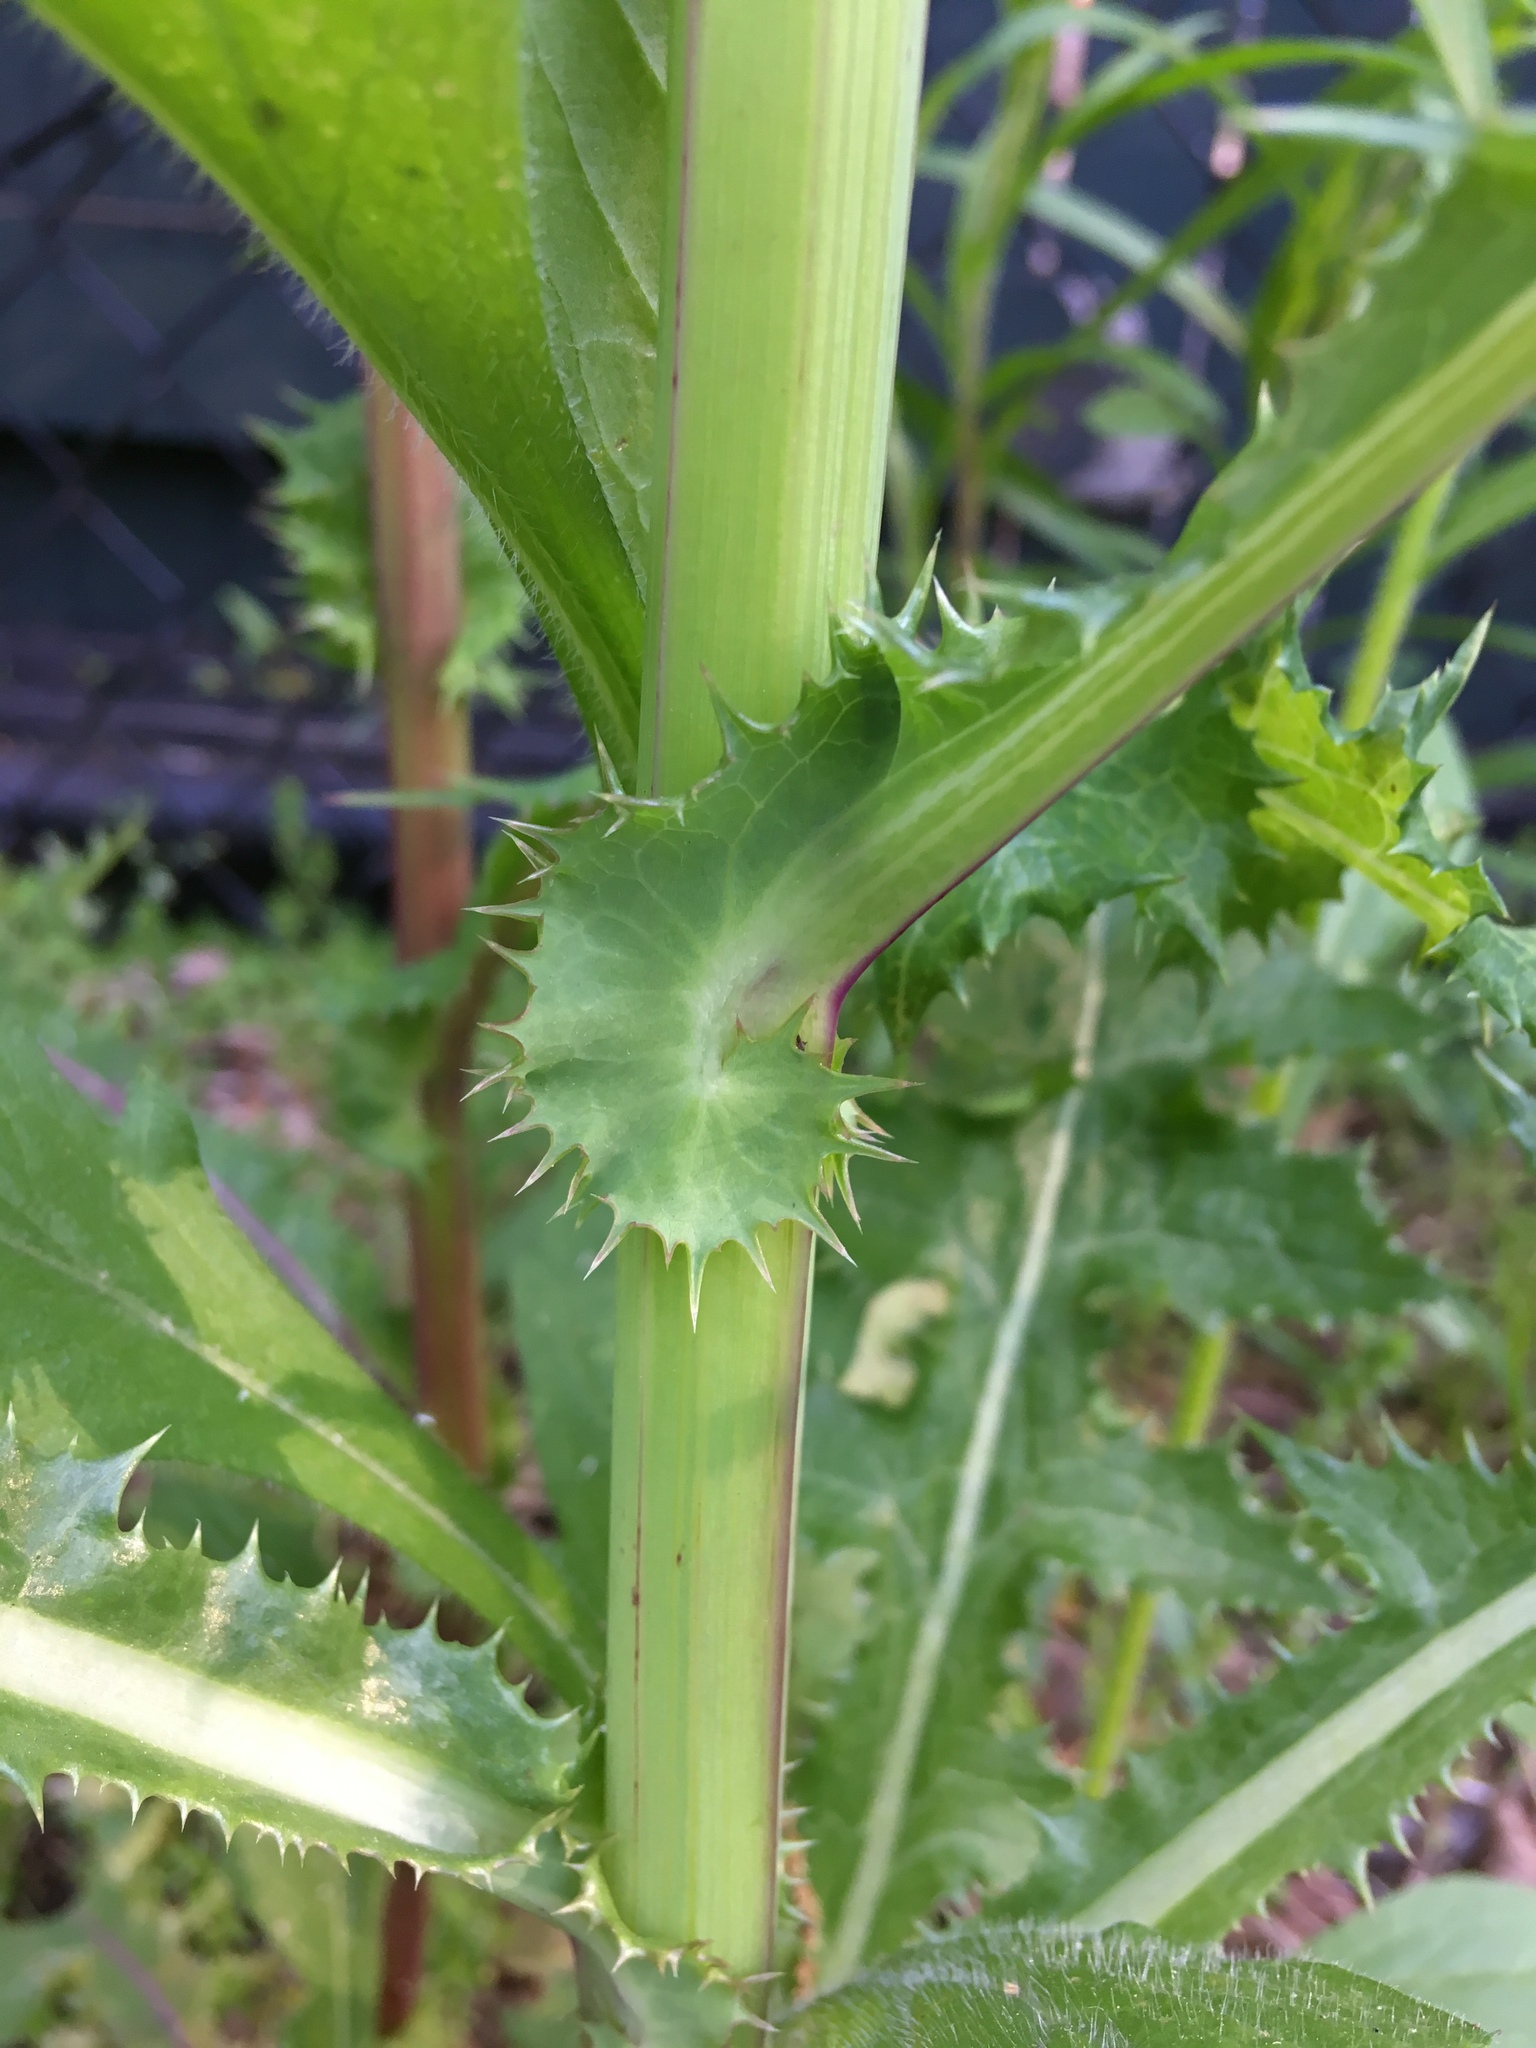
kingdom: Plantae
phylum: Tracheophyta
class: Magnoliopsida
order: Asterales
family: Asteraceae
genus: Sonchus
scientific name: Sonchus asper
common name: Prickly sow-thistle
